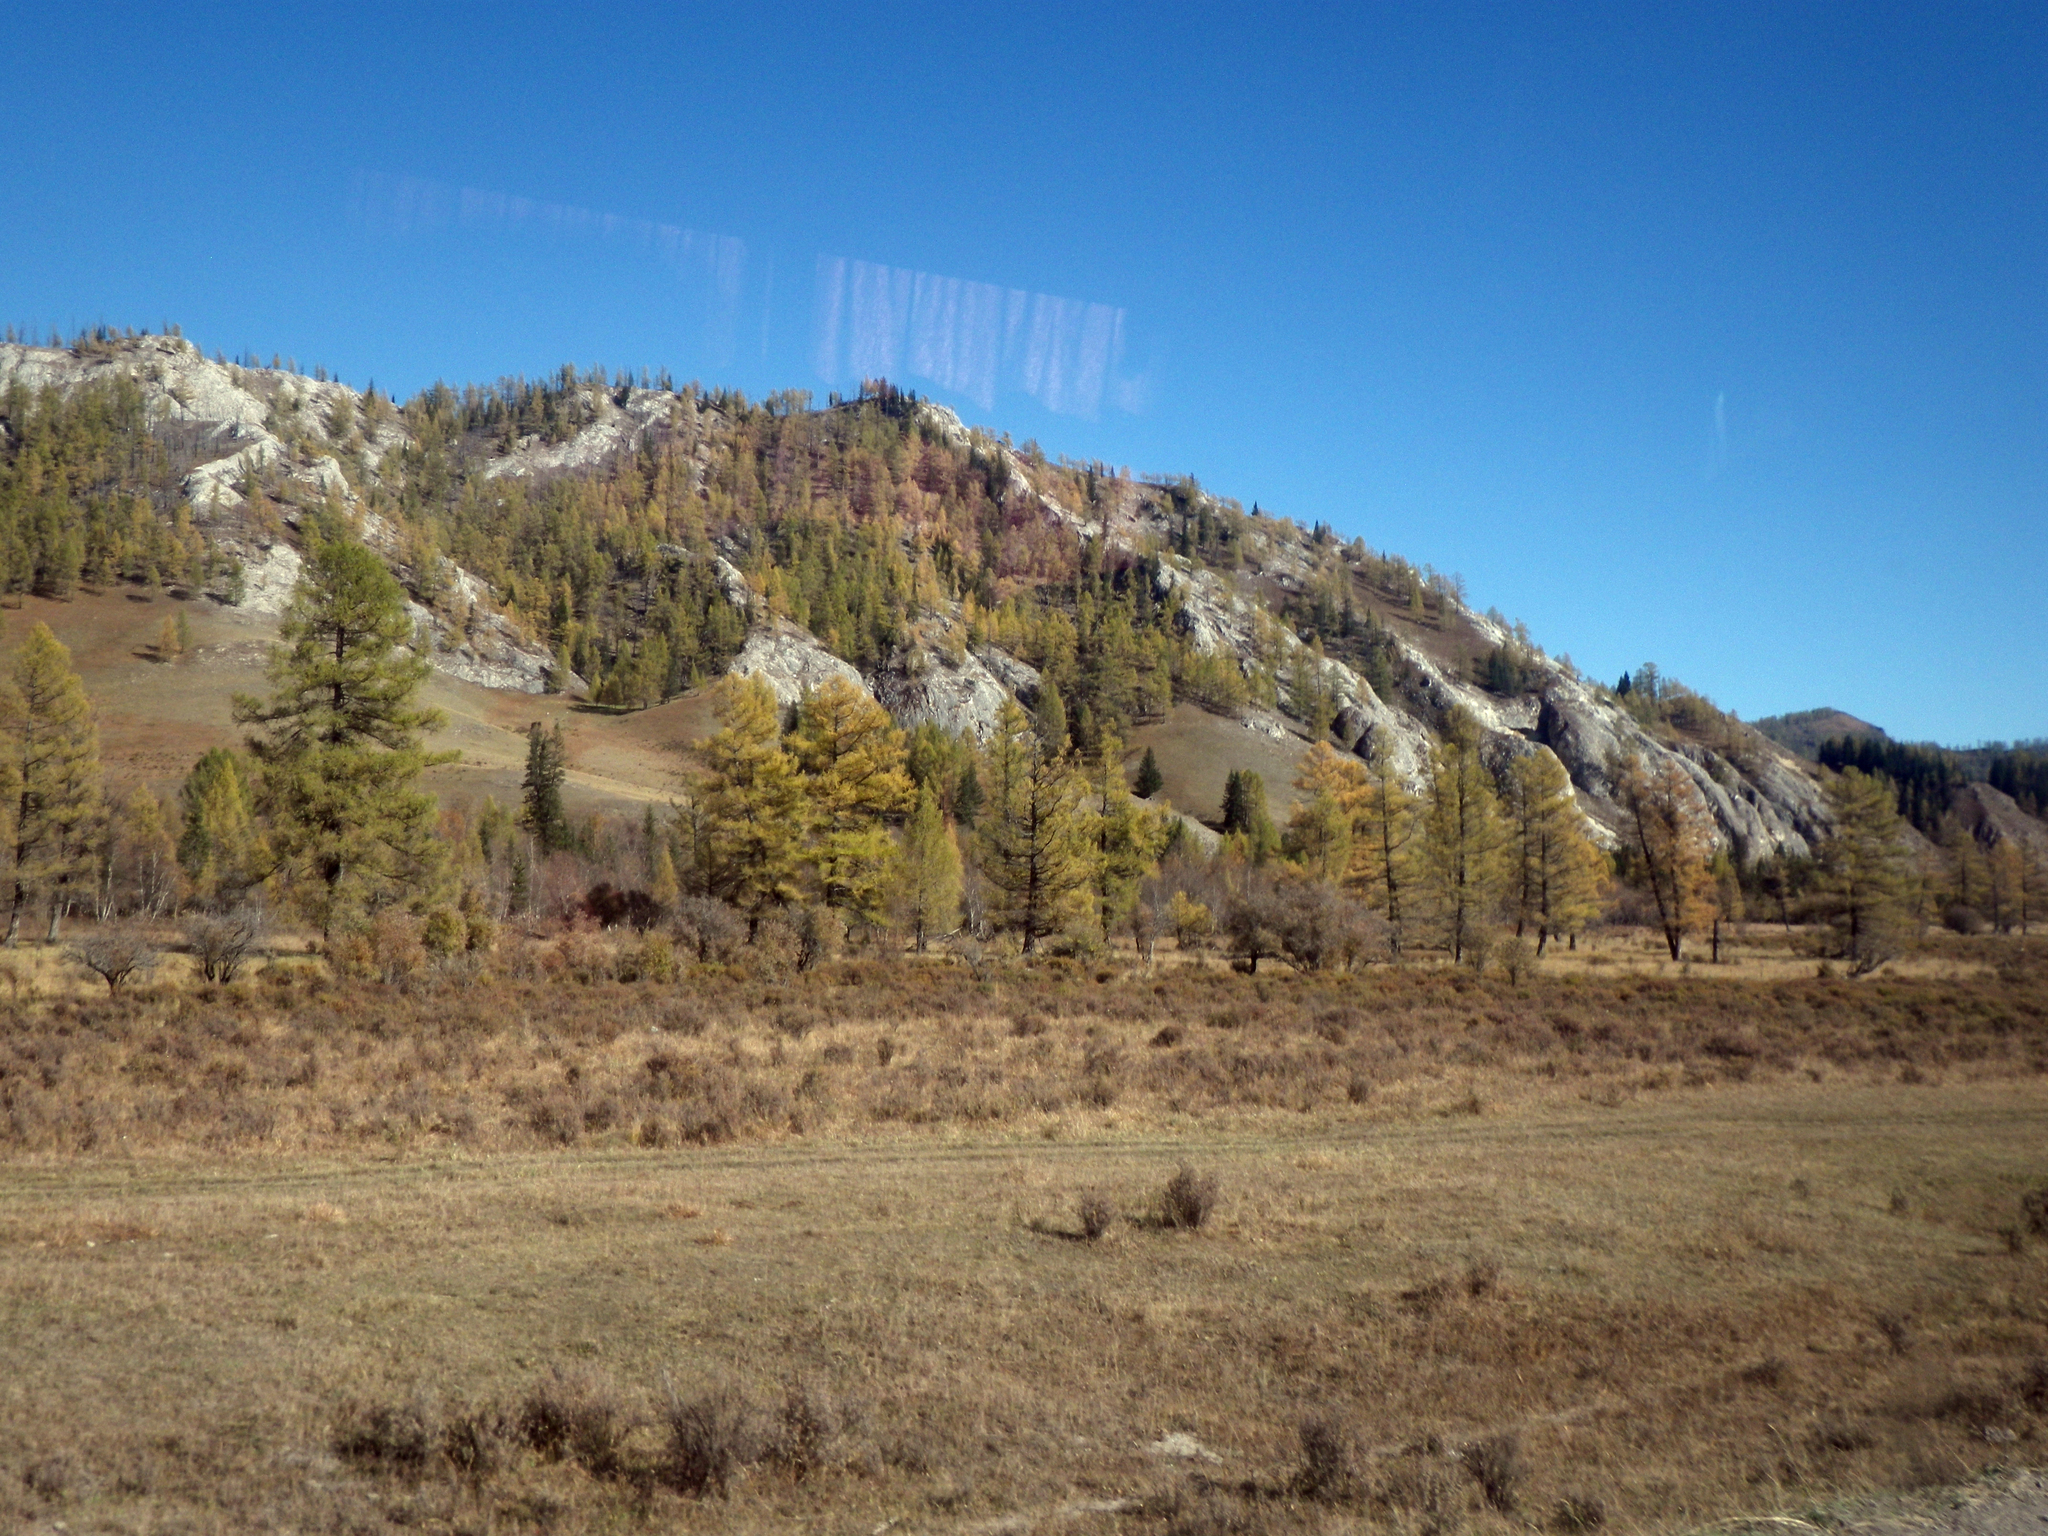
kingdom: Plantae
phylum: Tracheophyta
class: Pinopsida
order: Pinales
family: Pinaceae
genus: Larix
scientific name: Larix sibirica
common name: Siberian larch
